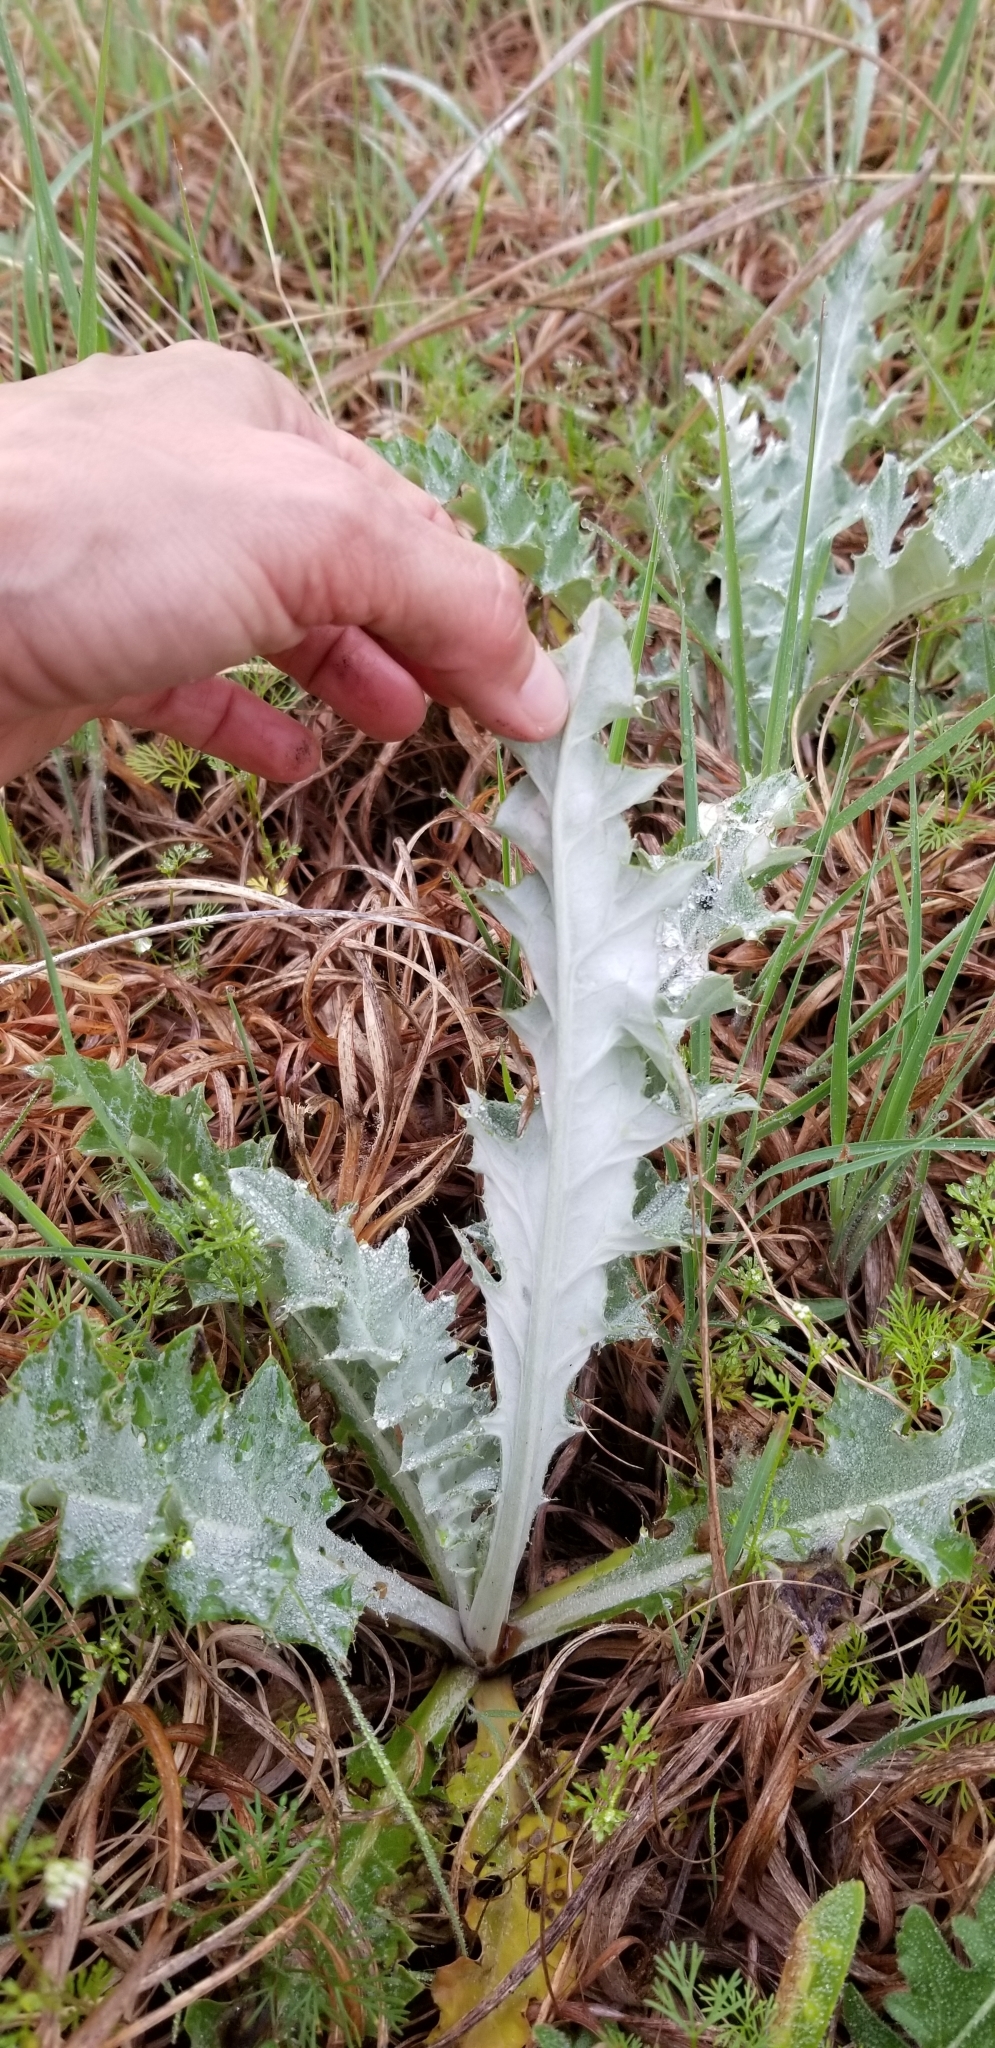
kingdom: Plantae
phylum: Tracheophyta
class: Magnoliopsida
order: Asterales
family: Asteraceae
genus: Cirsium
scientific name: Cirsium undulatum
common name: Pasture thistle
